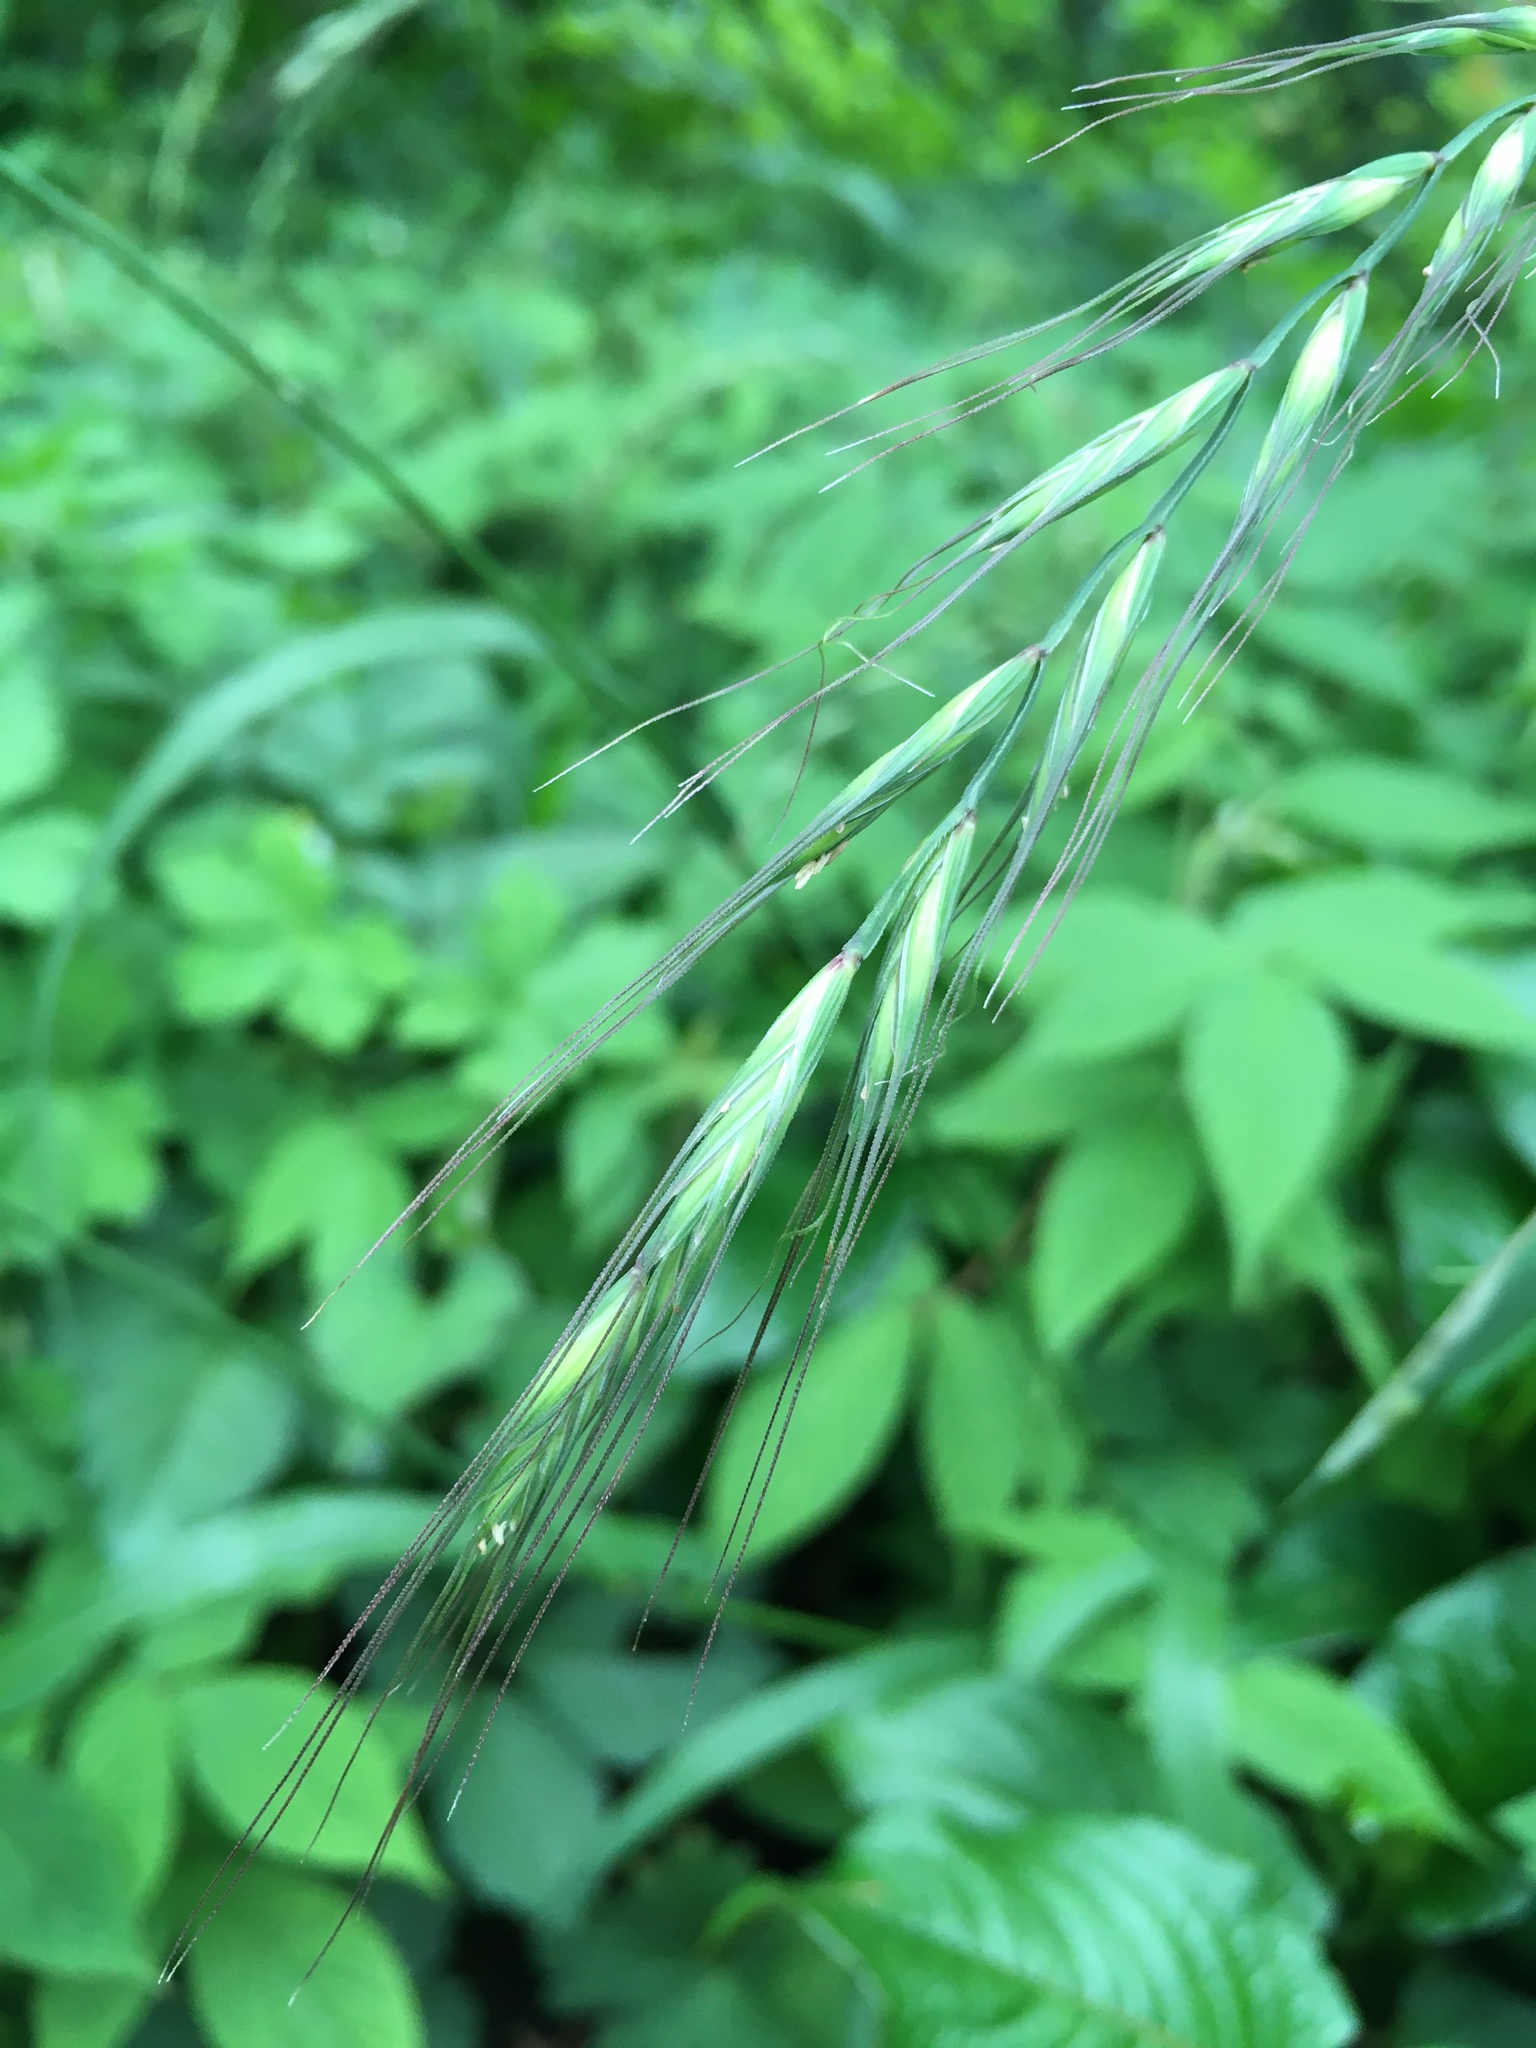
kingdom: Plantae
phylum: Tracheophyta
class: Liliopsida
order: Poales
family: Poaceae
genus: Elymus
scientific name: Elymus tsukushiensis
